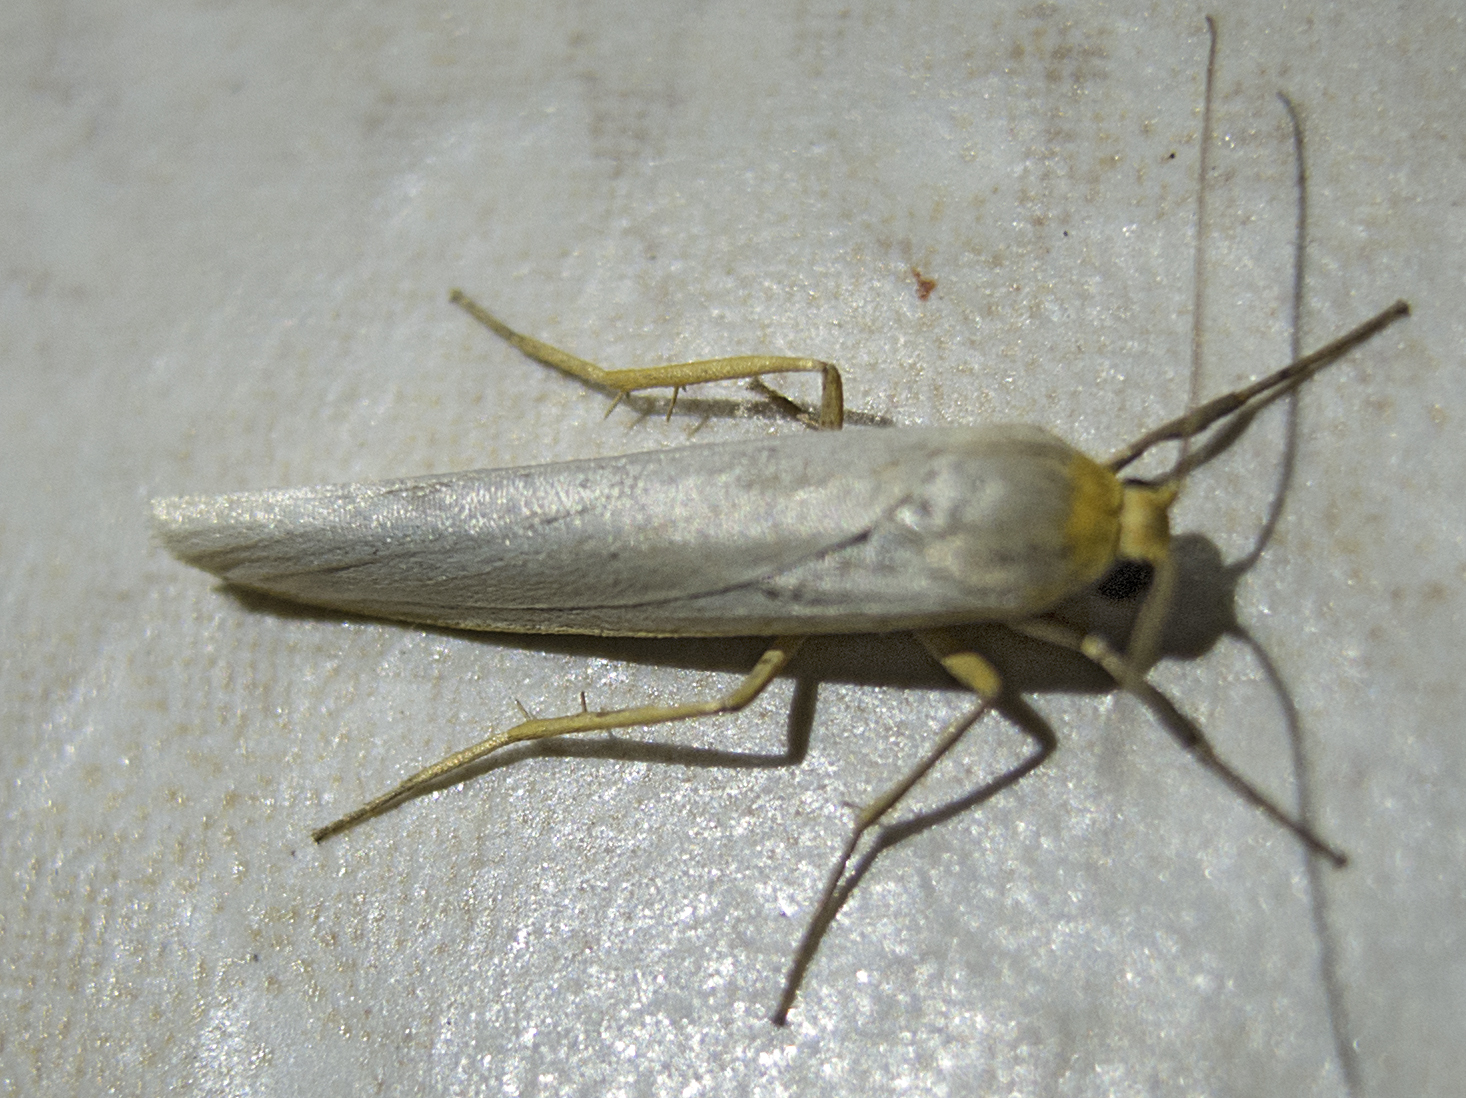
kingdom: Animalia
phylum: Arthropoda
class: Insecta
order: Lepidoptera
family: Erebidae
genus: Eilema
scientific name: Eilema caniola
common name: Hoary footman
